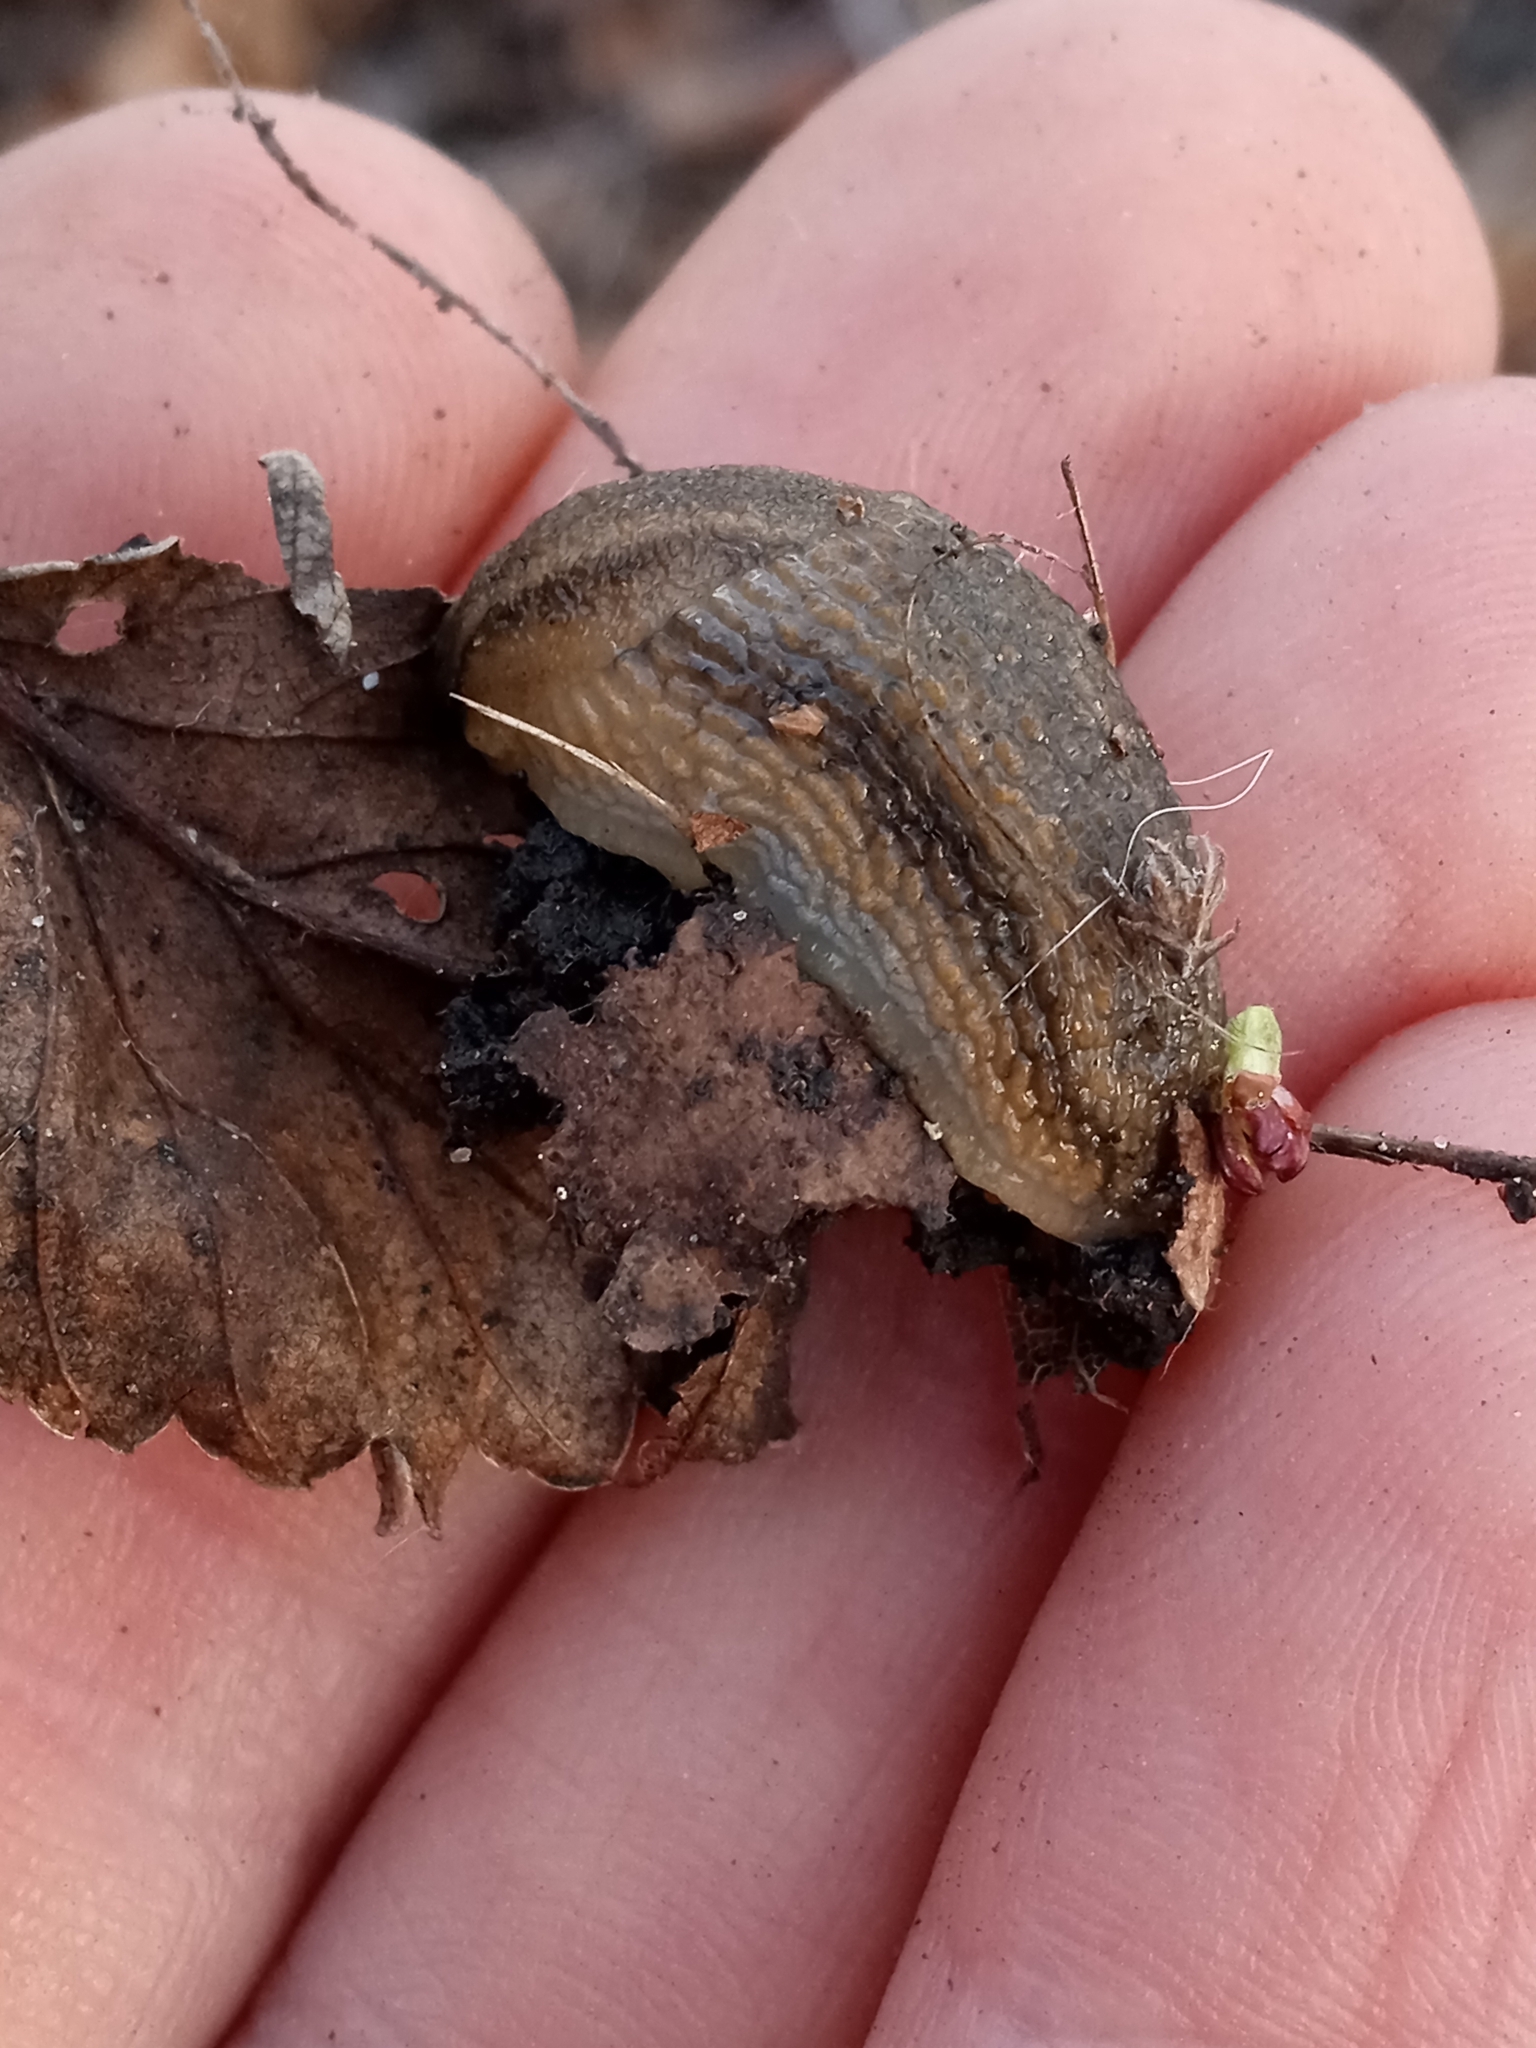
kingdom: Animalia
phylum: Mollusca
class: Gastropoda
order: Stylommatophora
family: Arionidae
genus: Arion
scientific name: Arion fasciatus
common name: Orange-banded arion
